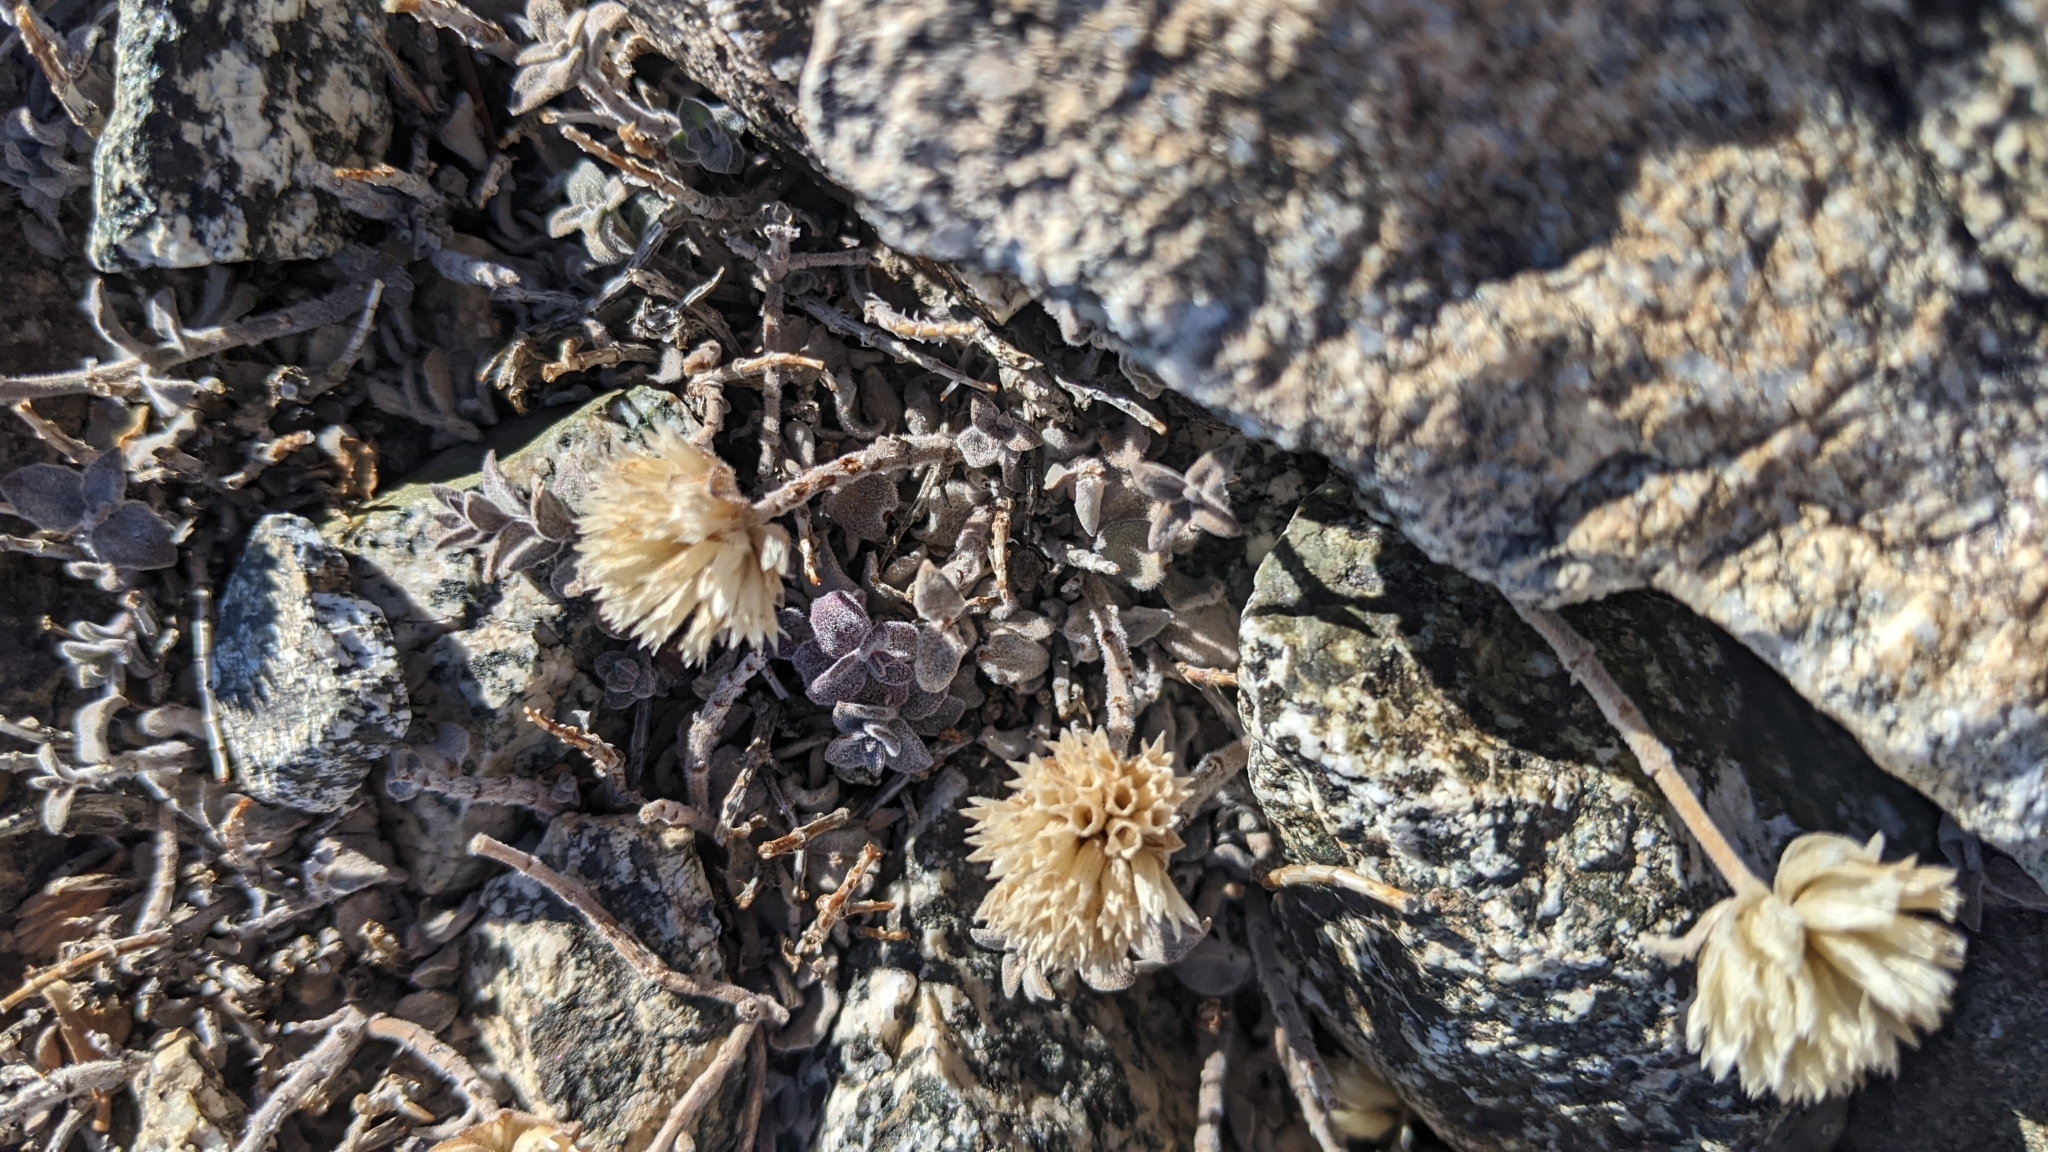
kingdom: Plantae
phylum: Tracheophyta
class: Magnoliopsida
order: Lamiales
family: Lamiaceae
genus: Monardella
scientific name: Monardella australis
